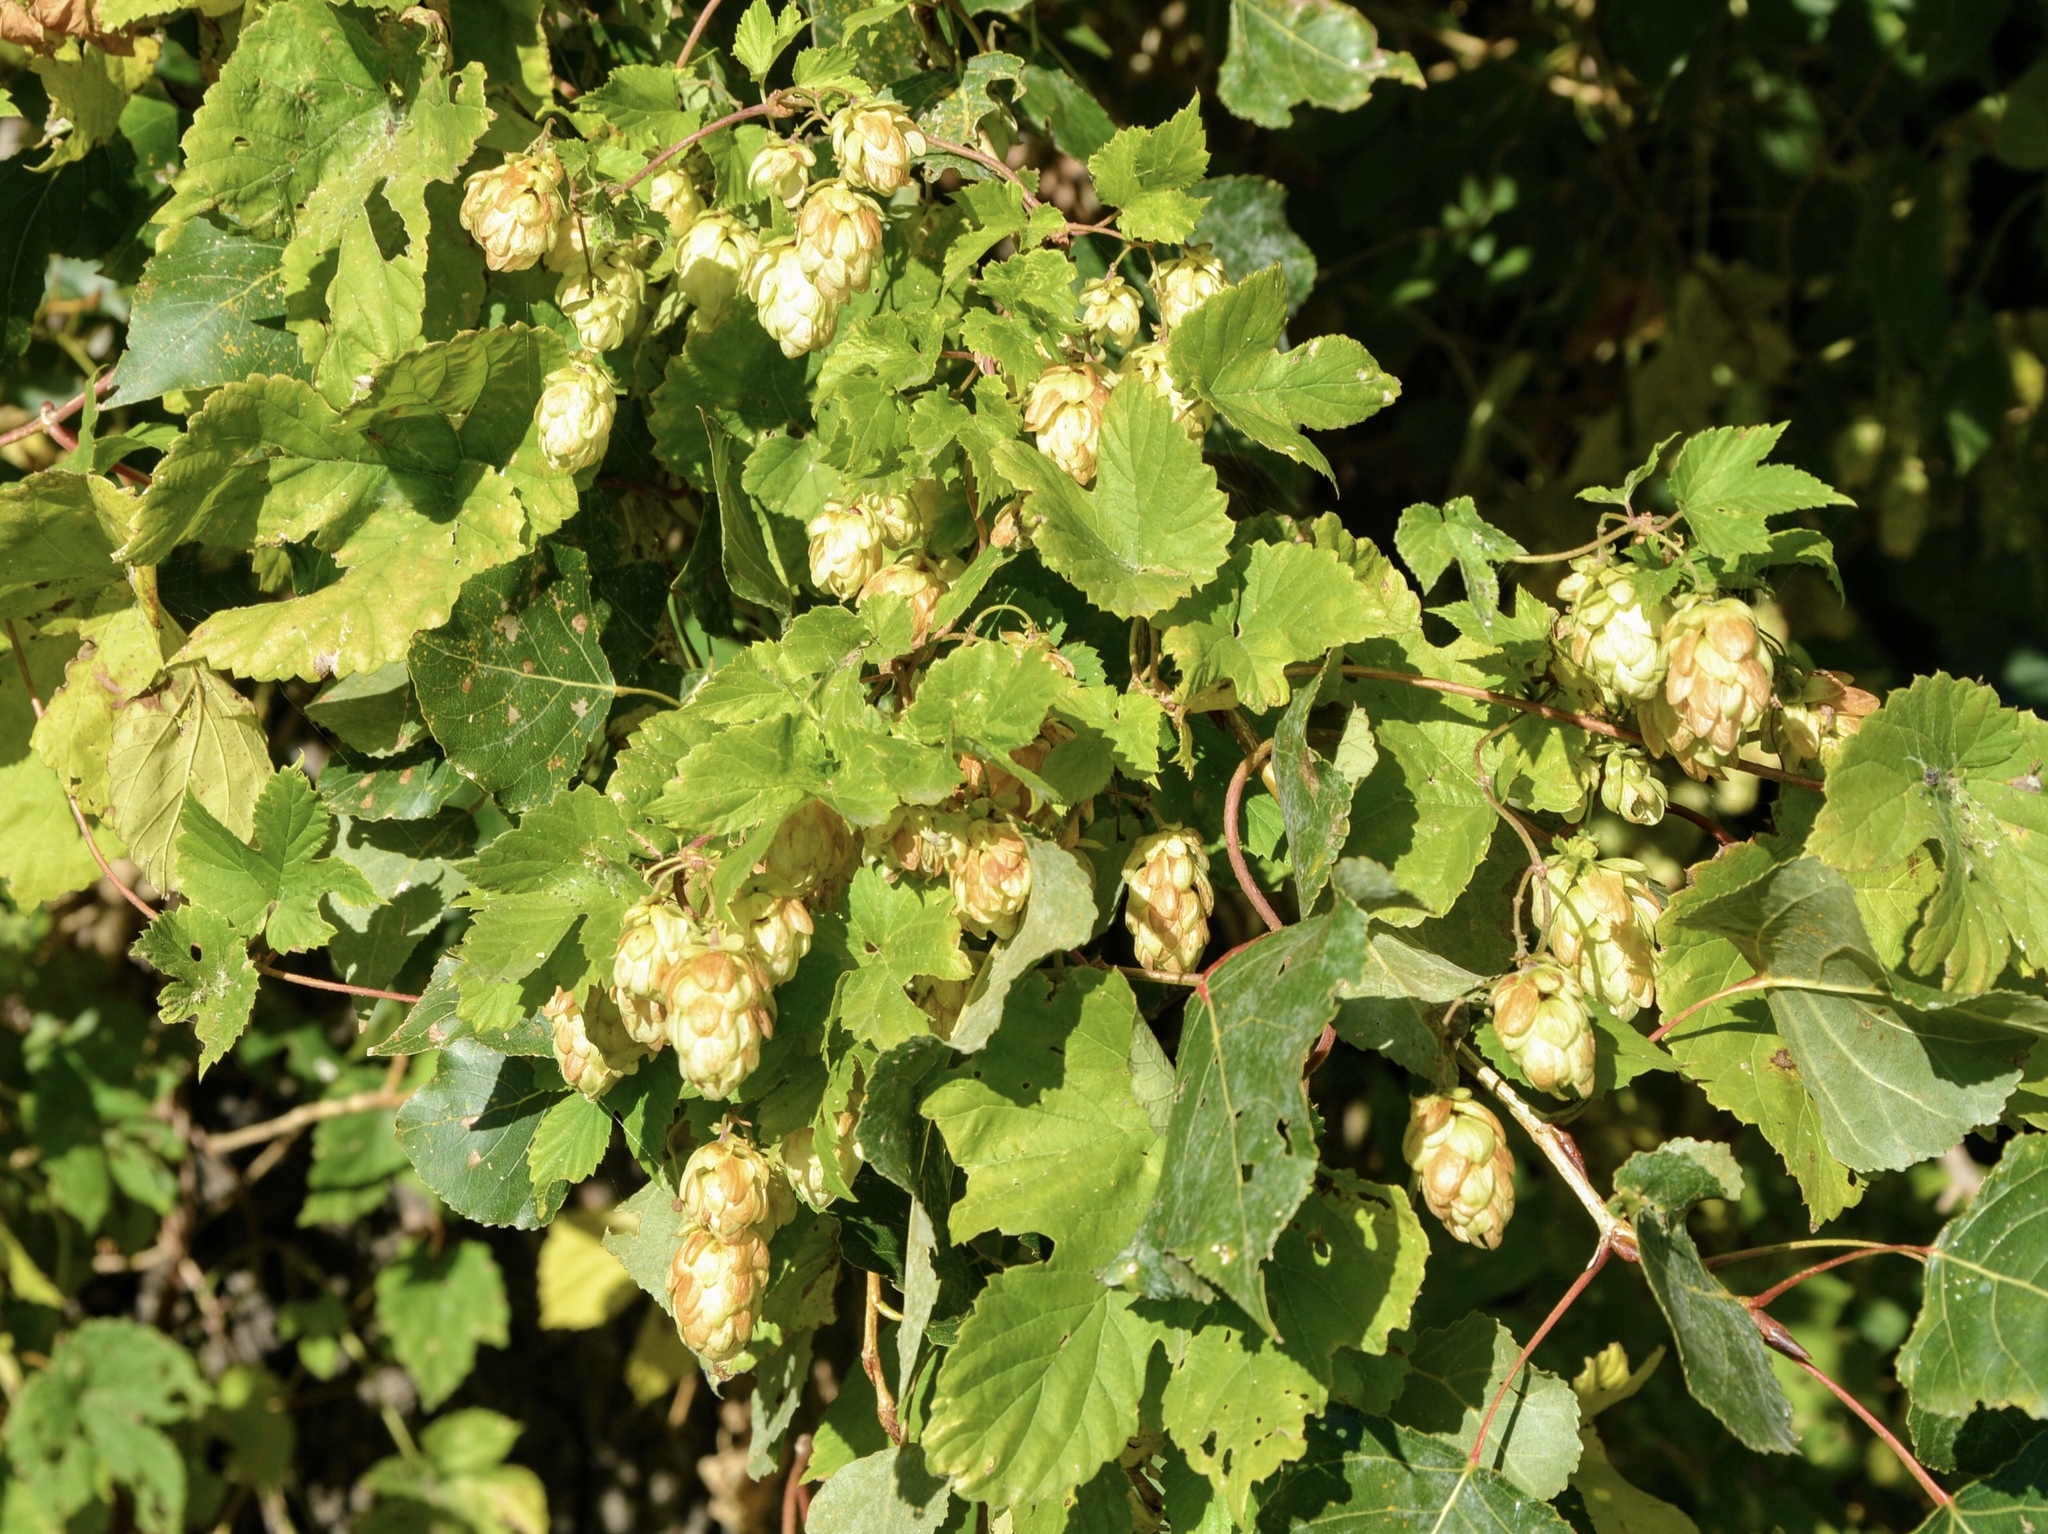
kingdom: Plantae
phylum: Tracheophyta
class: Magnoliopsida
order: Rosales
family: Cannabaceae
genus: Humulus
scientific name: Humulus lupulus
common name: Hop
